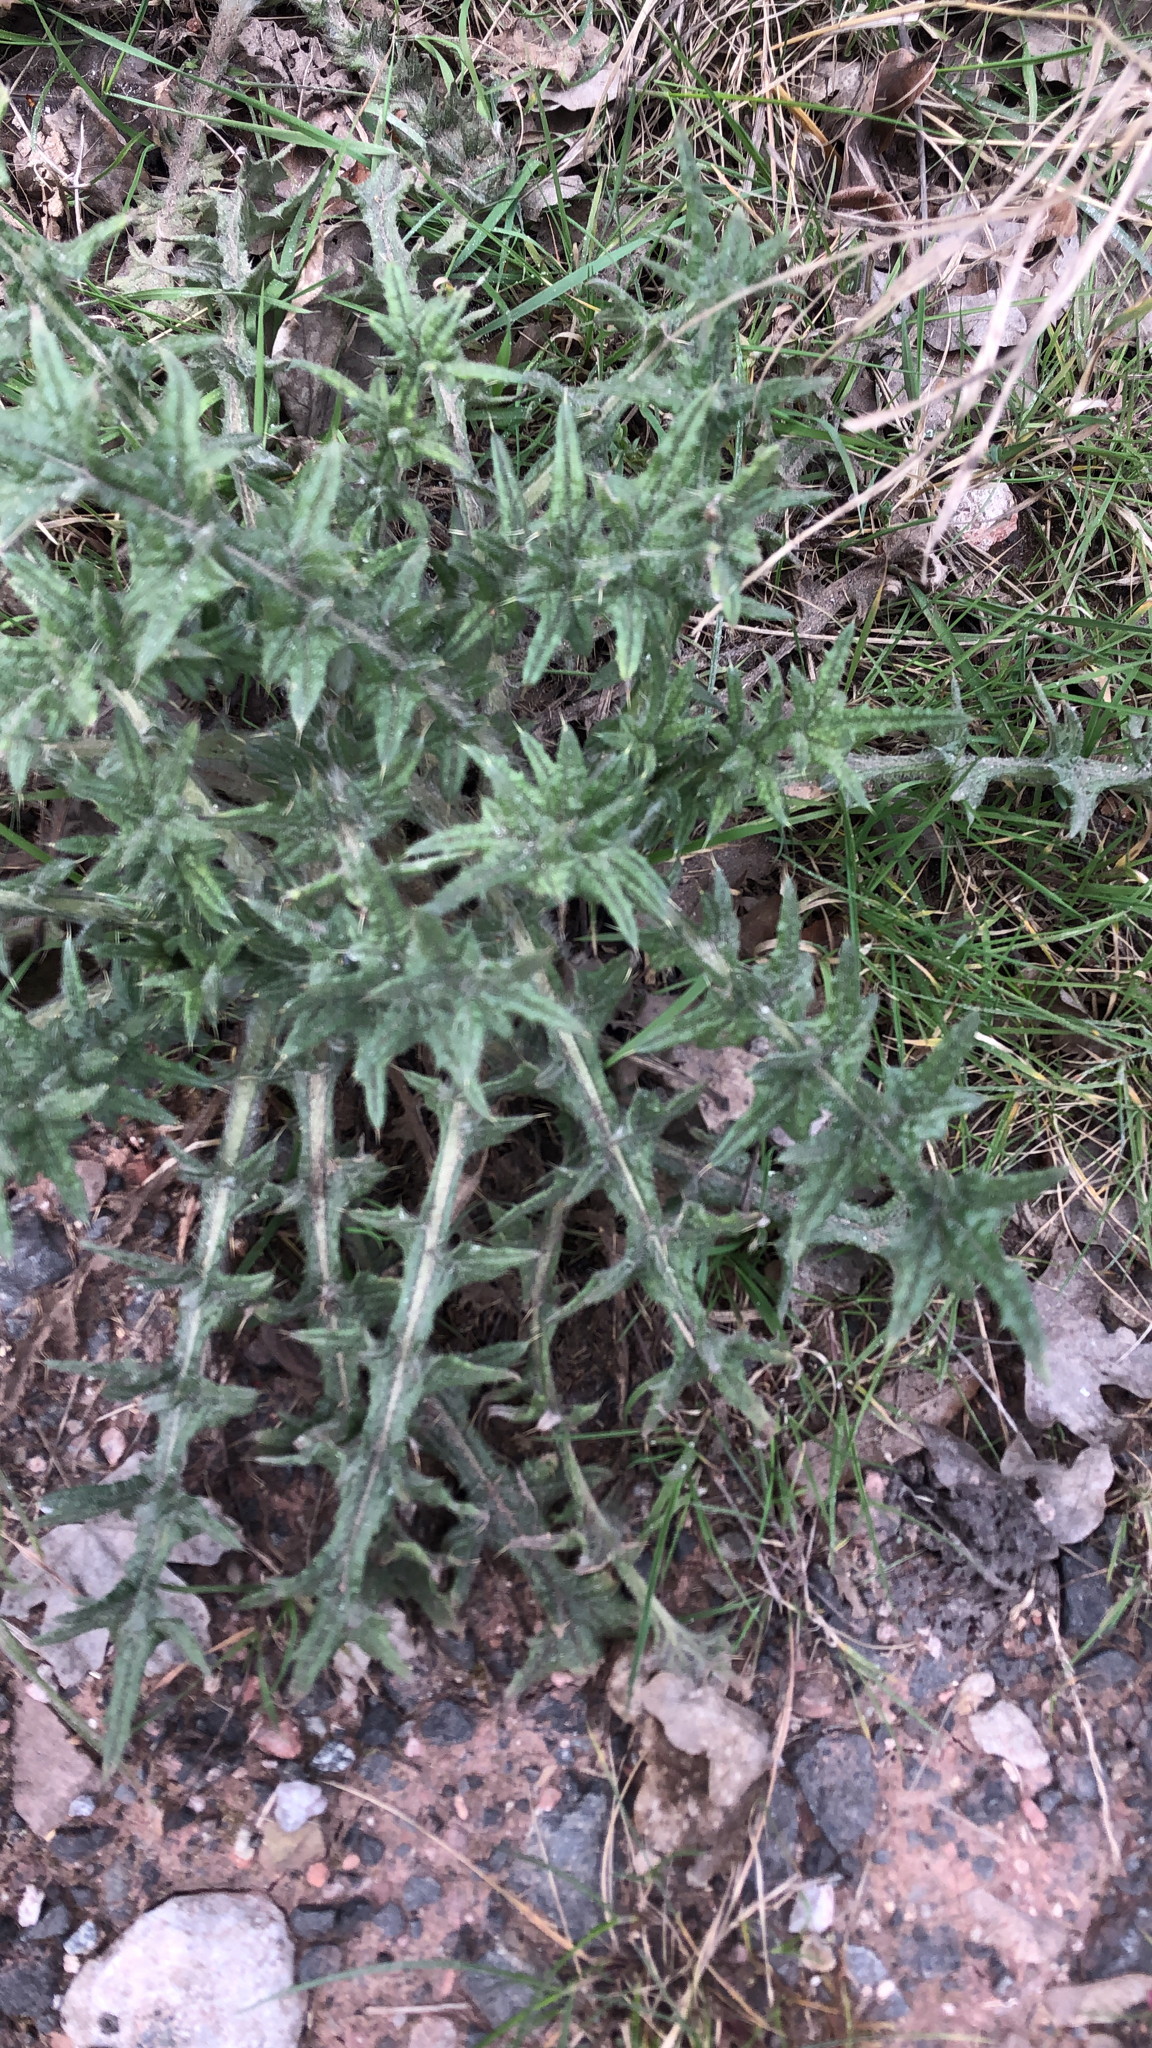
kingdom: Plantae
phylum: Tracheophyta
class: Magnoliopsida
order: Asterales
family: Asteraceae
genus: Cirsium
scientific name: Cirsium vulgare
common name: Bull thistle
